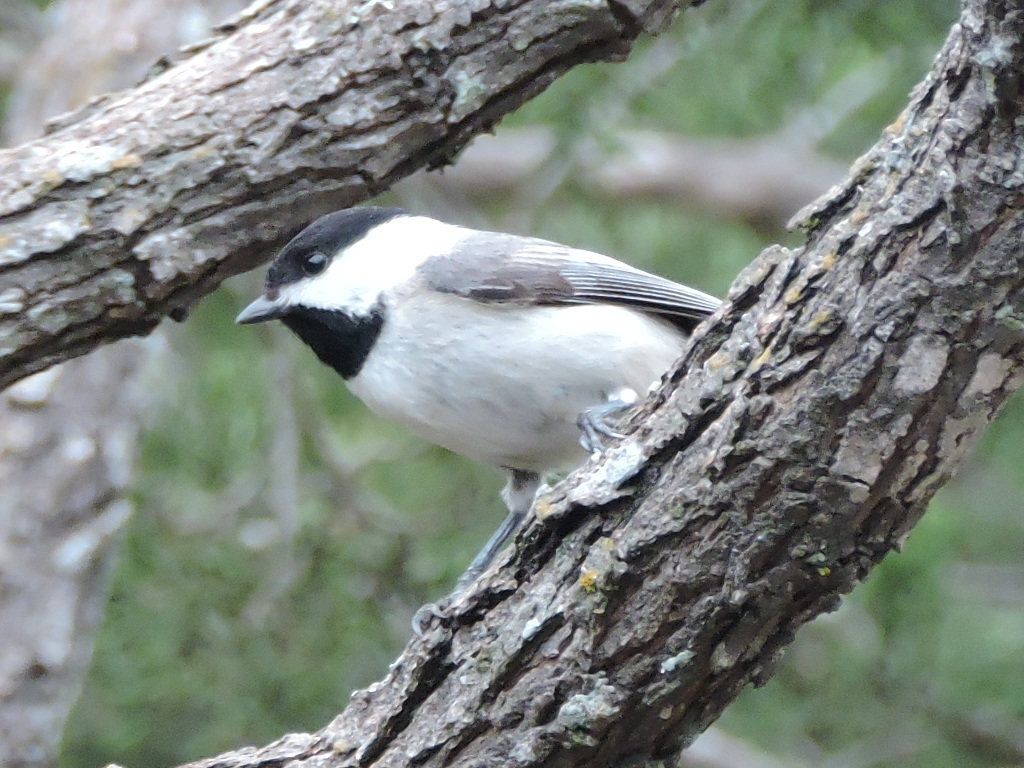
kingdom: Animalia
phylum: Chordata
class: Aves
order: Passeriformes
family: Paridae
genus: Poecile
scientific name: Poecile carolinensis
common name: Carolina chickadee
